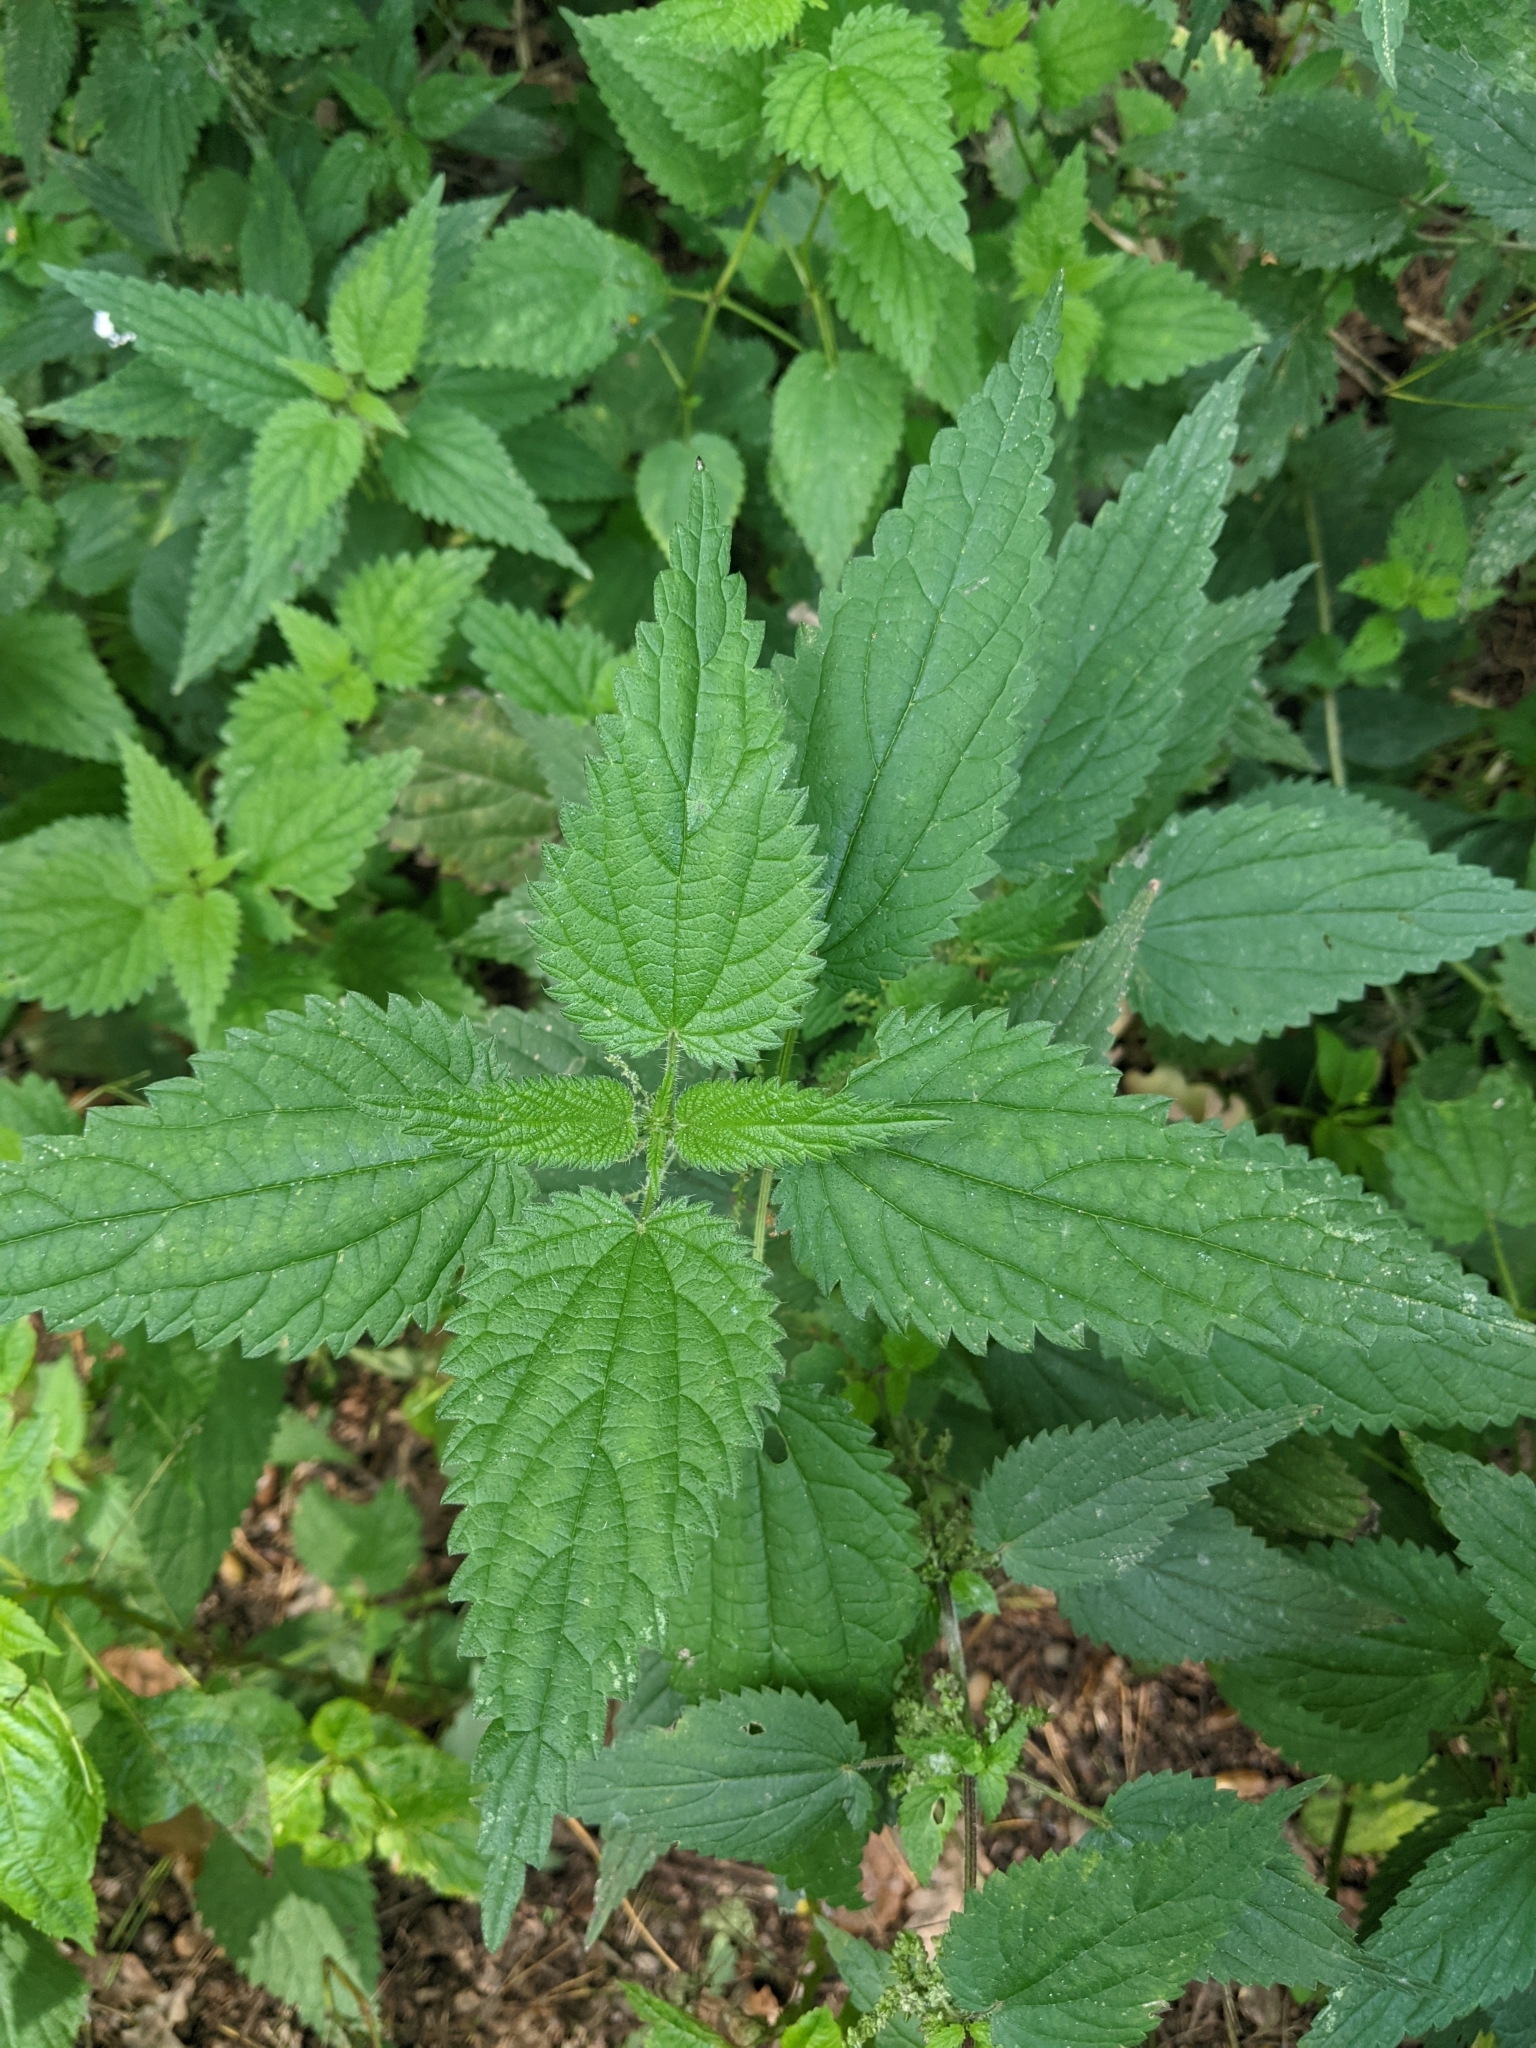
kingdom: Plantae
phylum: Tracheophyta
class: Magnoliopsida
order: Rosales
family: Urticaceae
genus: Urtica
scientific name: Urtica dioica
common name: Common nettle
